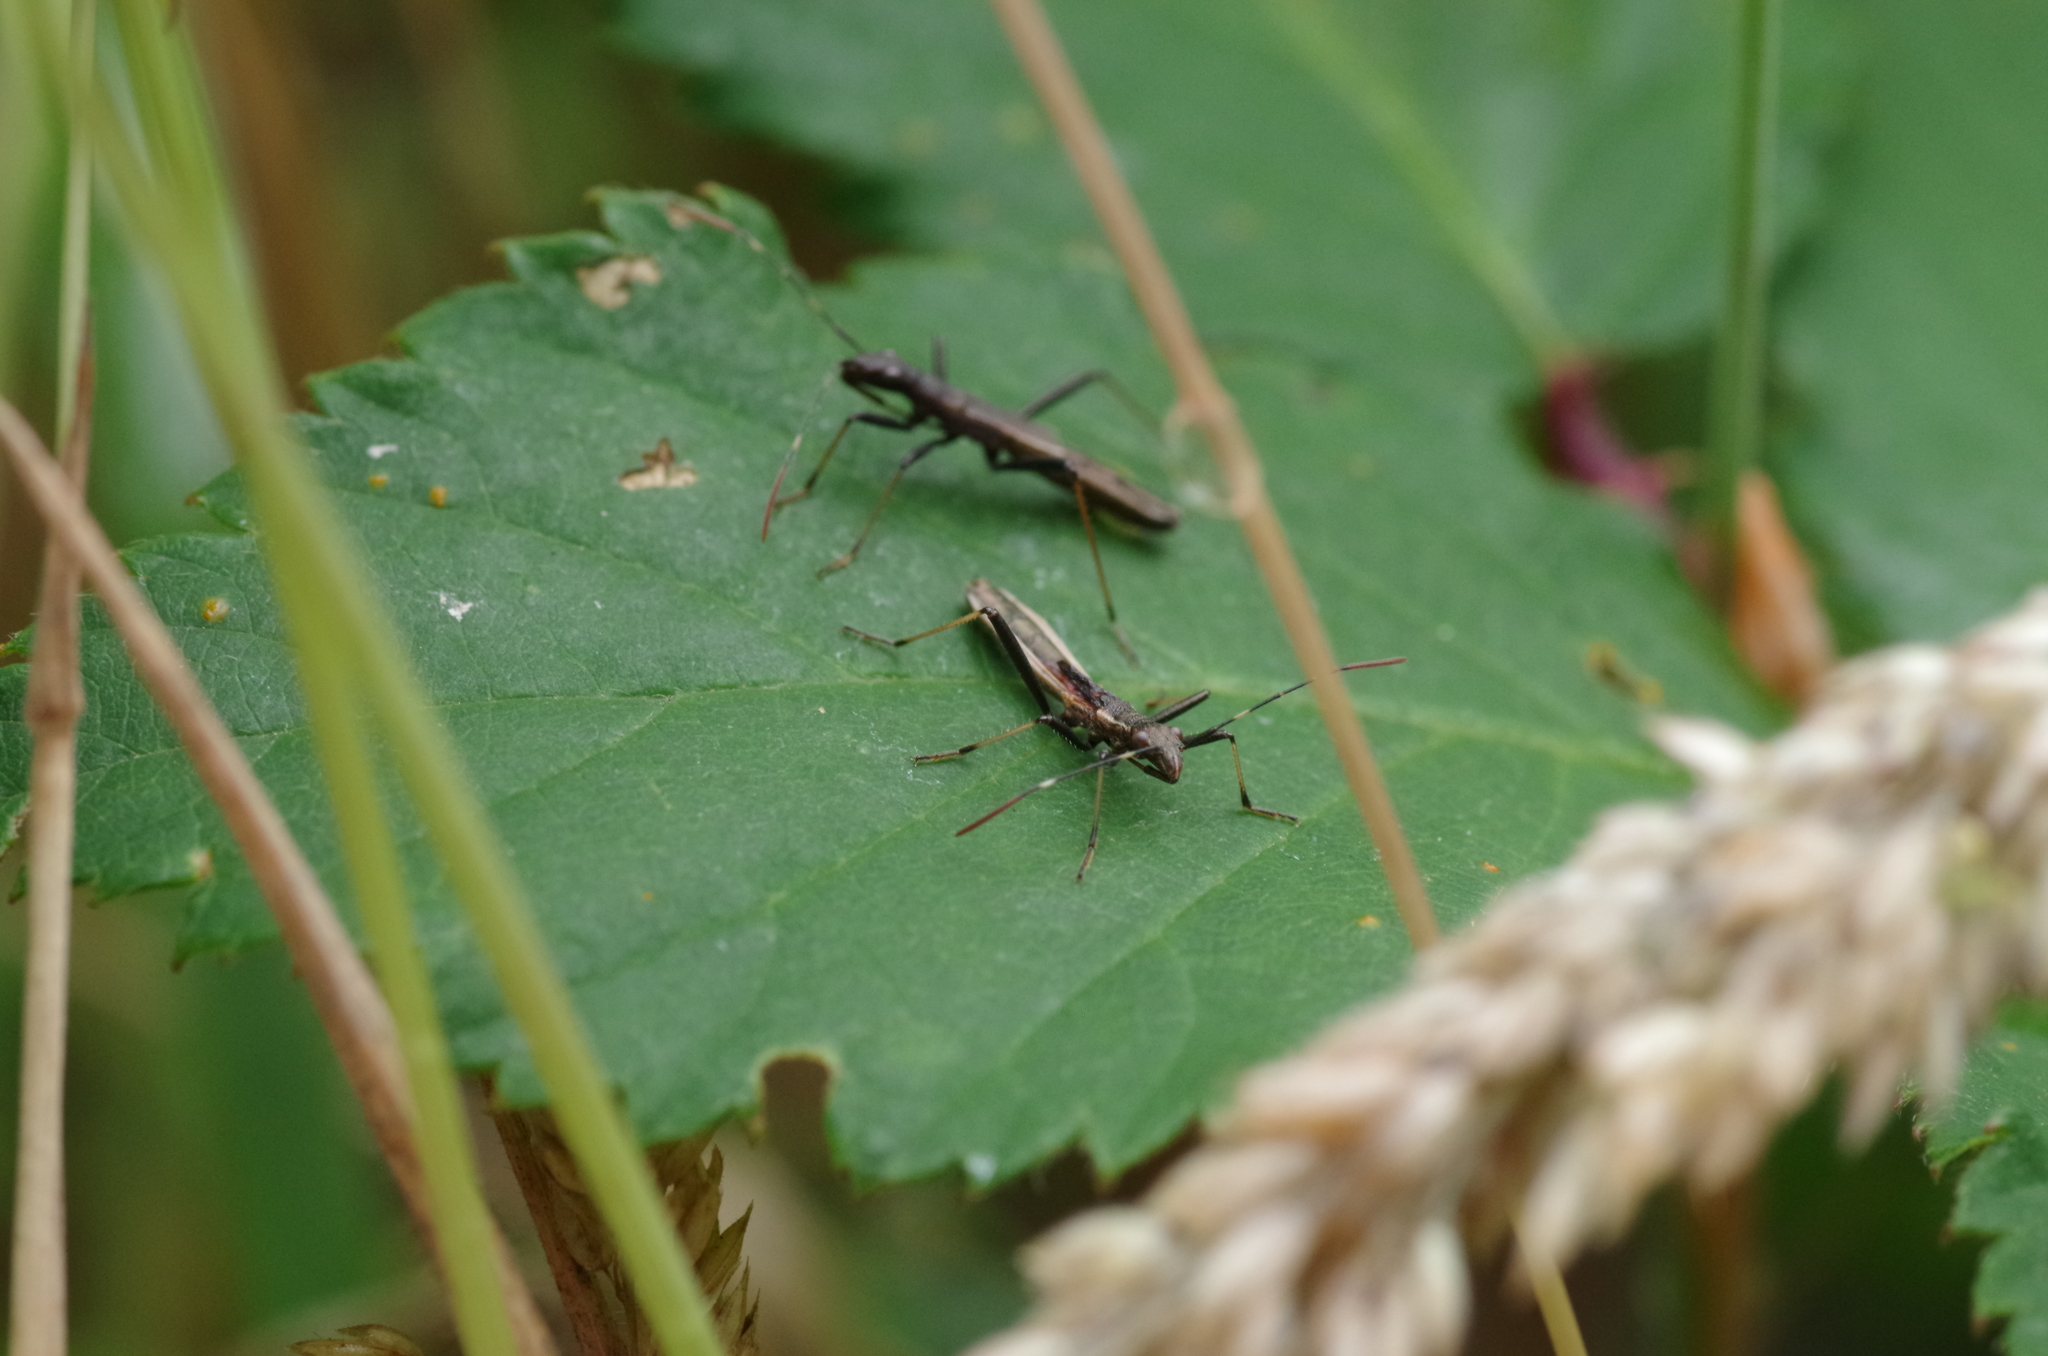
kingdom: Animalia
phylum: Arthropoda
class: Insecta
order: Hemiptera
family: Alydidae
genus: Micrelytra
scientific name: Micrelytra fossularum
